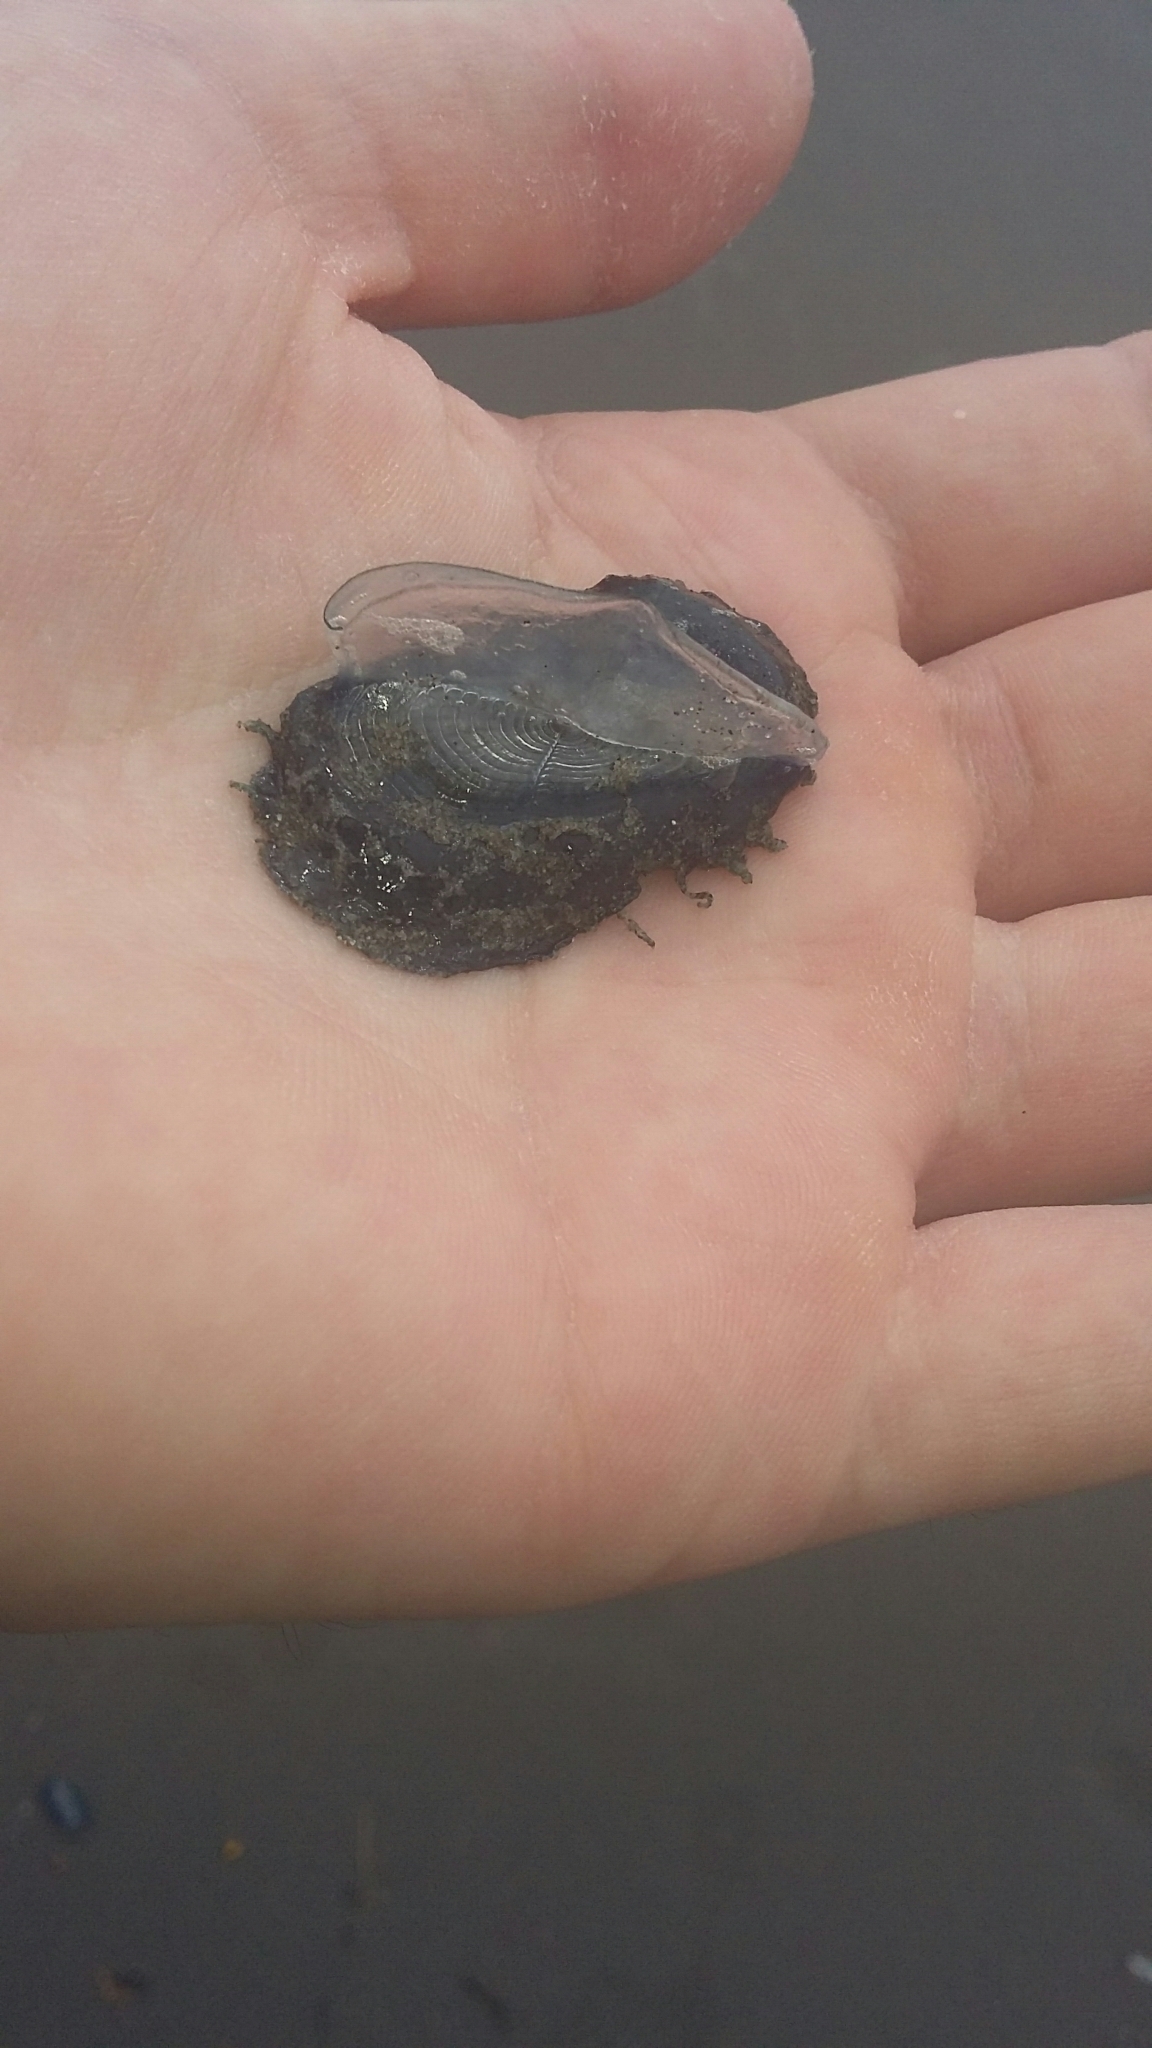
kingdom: Animalia
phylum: Cnidaria
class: Hydrozoa
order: Anthoathecata
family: Porpitidae
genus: Velella
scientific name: Velella velella
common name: By-the-wind-sailor
